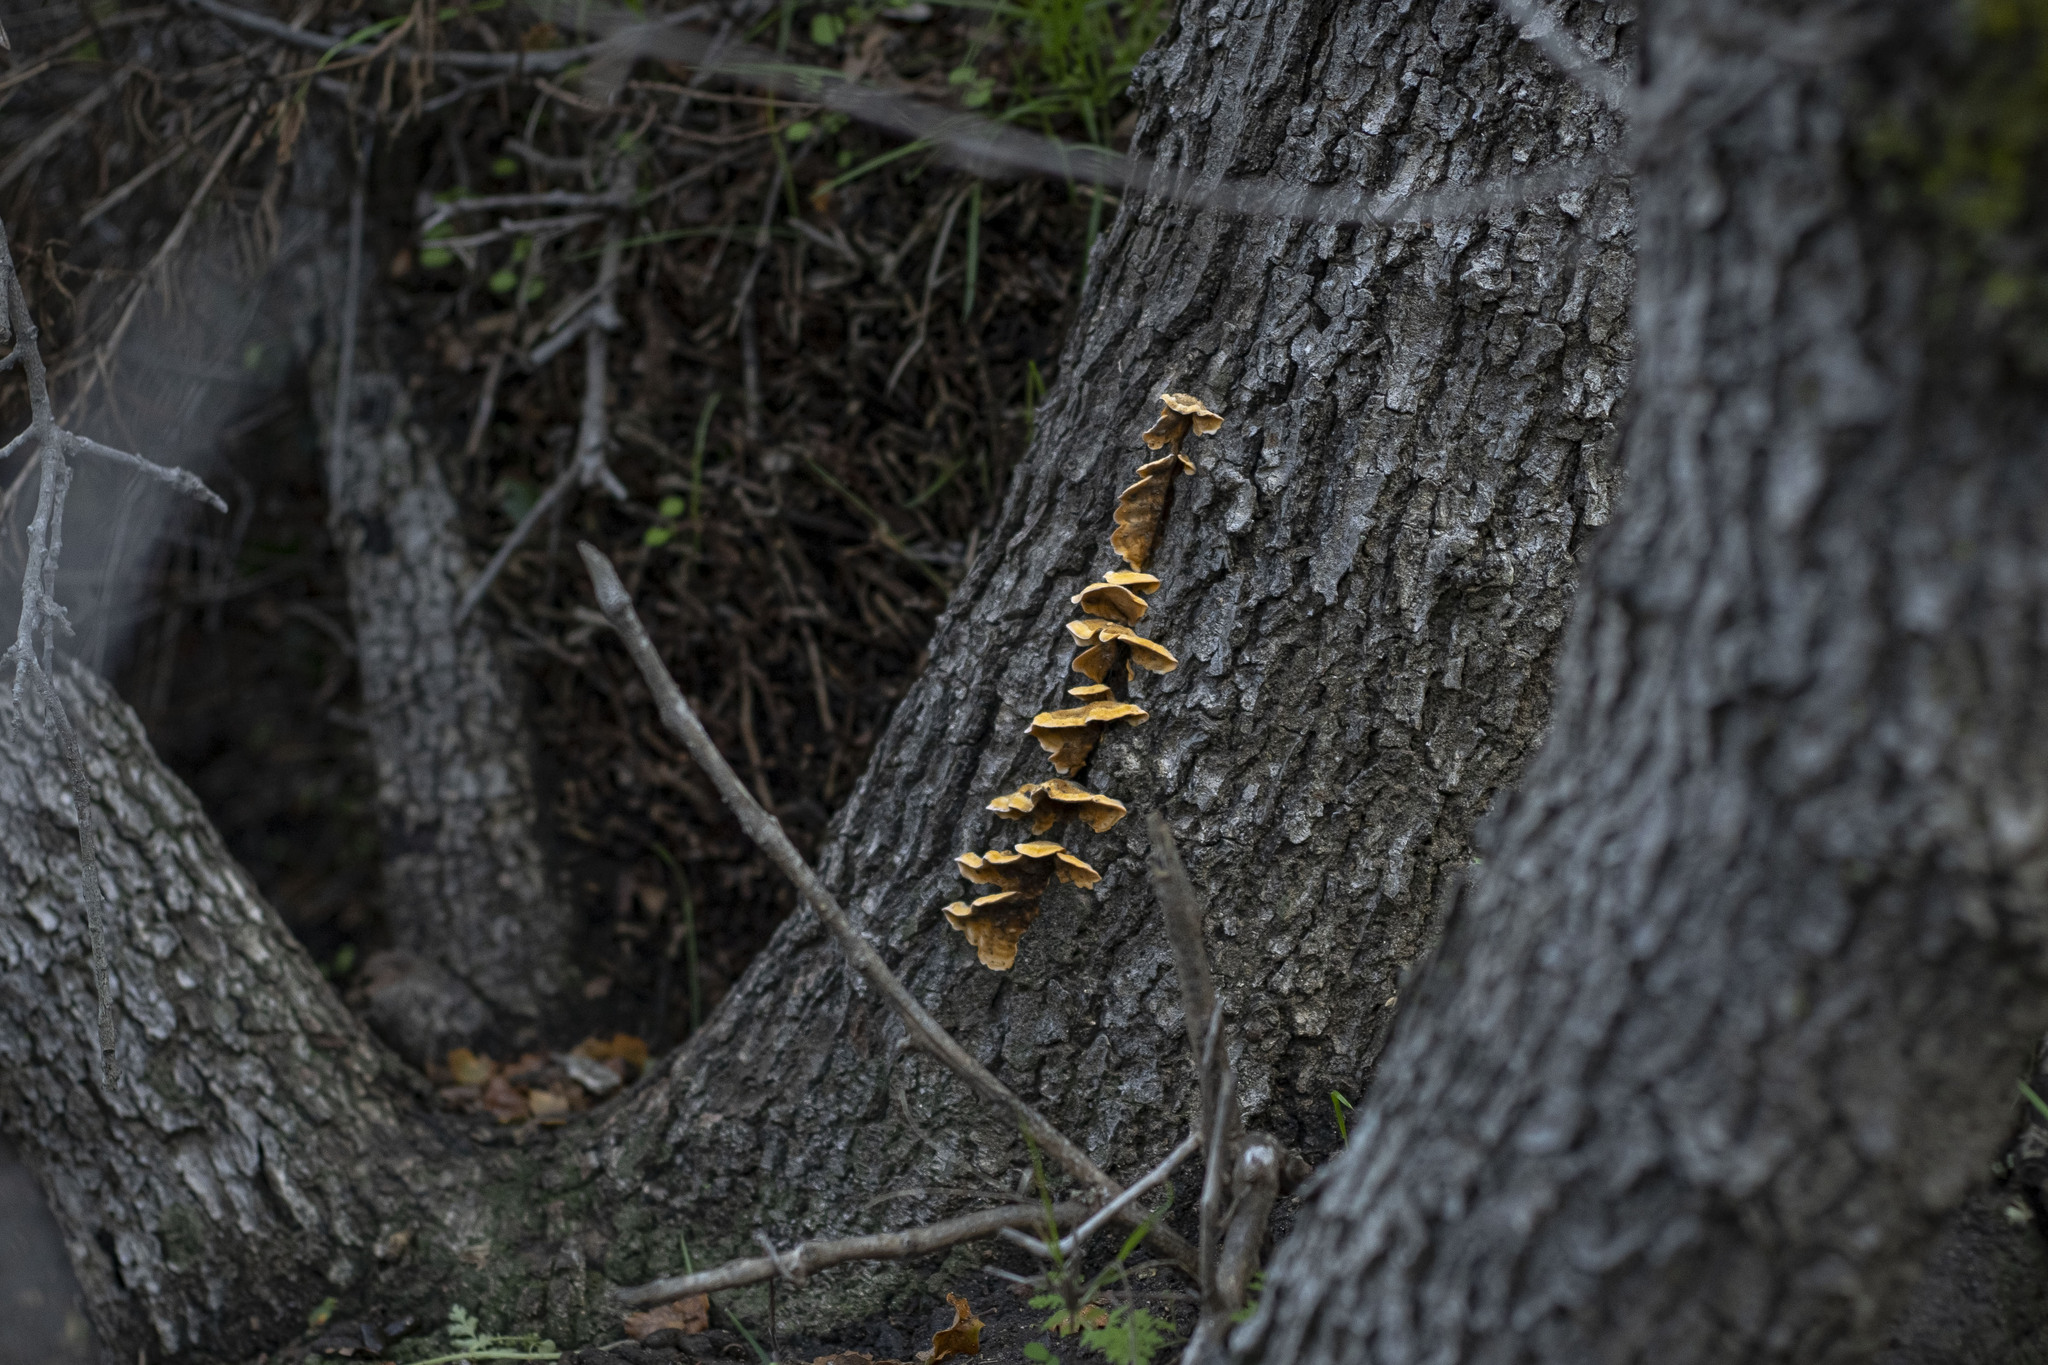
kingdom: Fungi
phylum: Basidiomycota
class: Agaricomycetes
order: Russulales
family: Stereaceae
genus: Stereum
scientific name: Stereum hirsutum
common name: Hairy curtain crust
